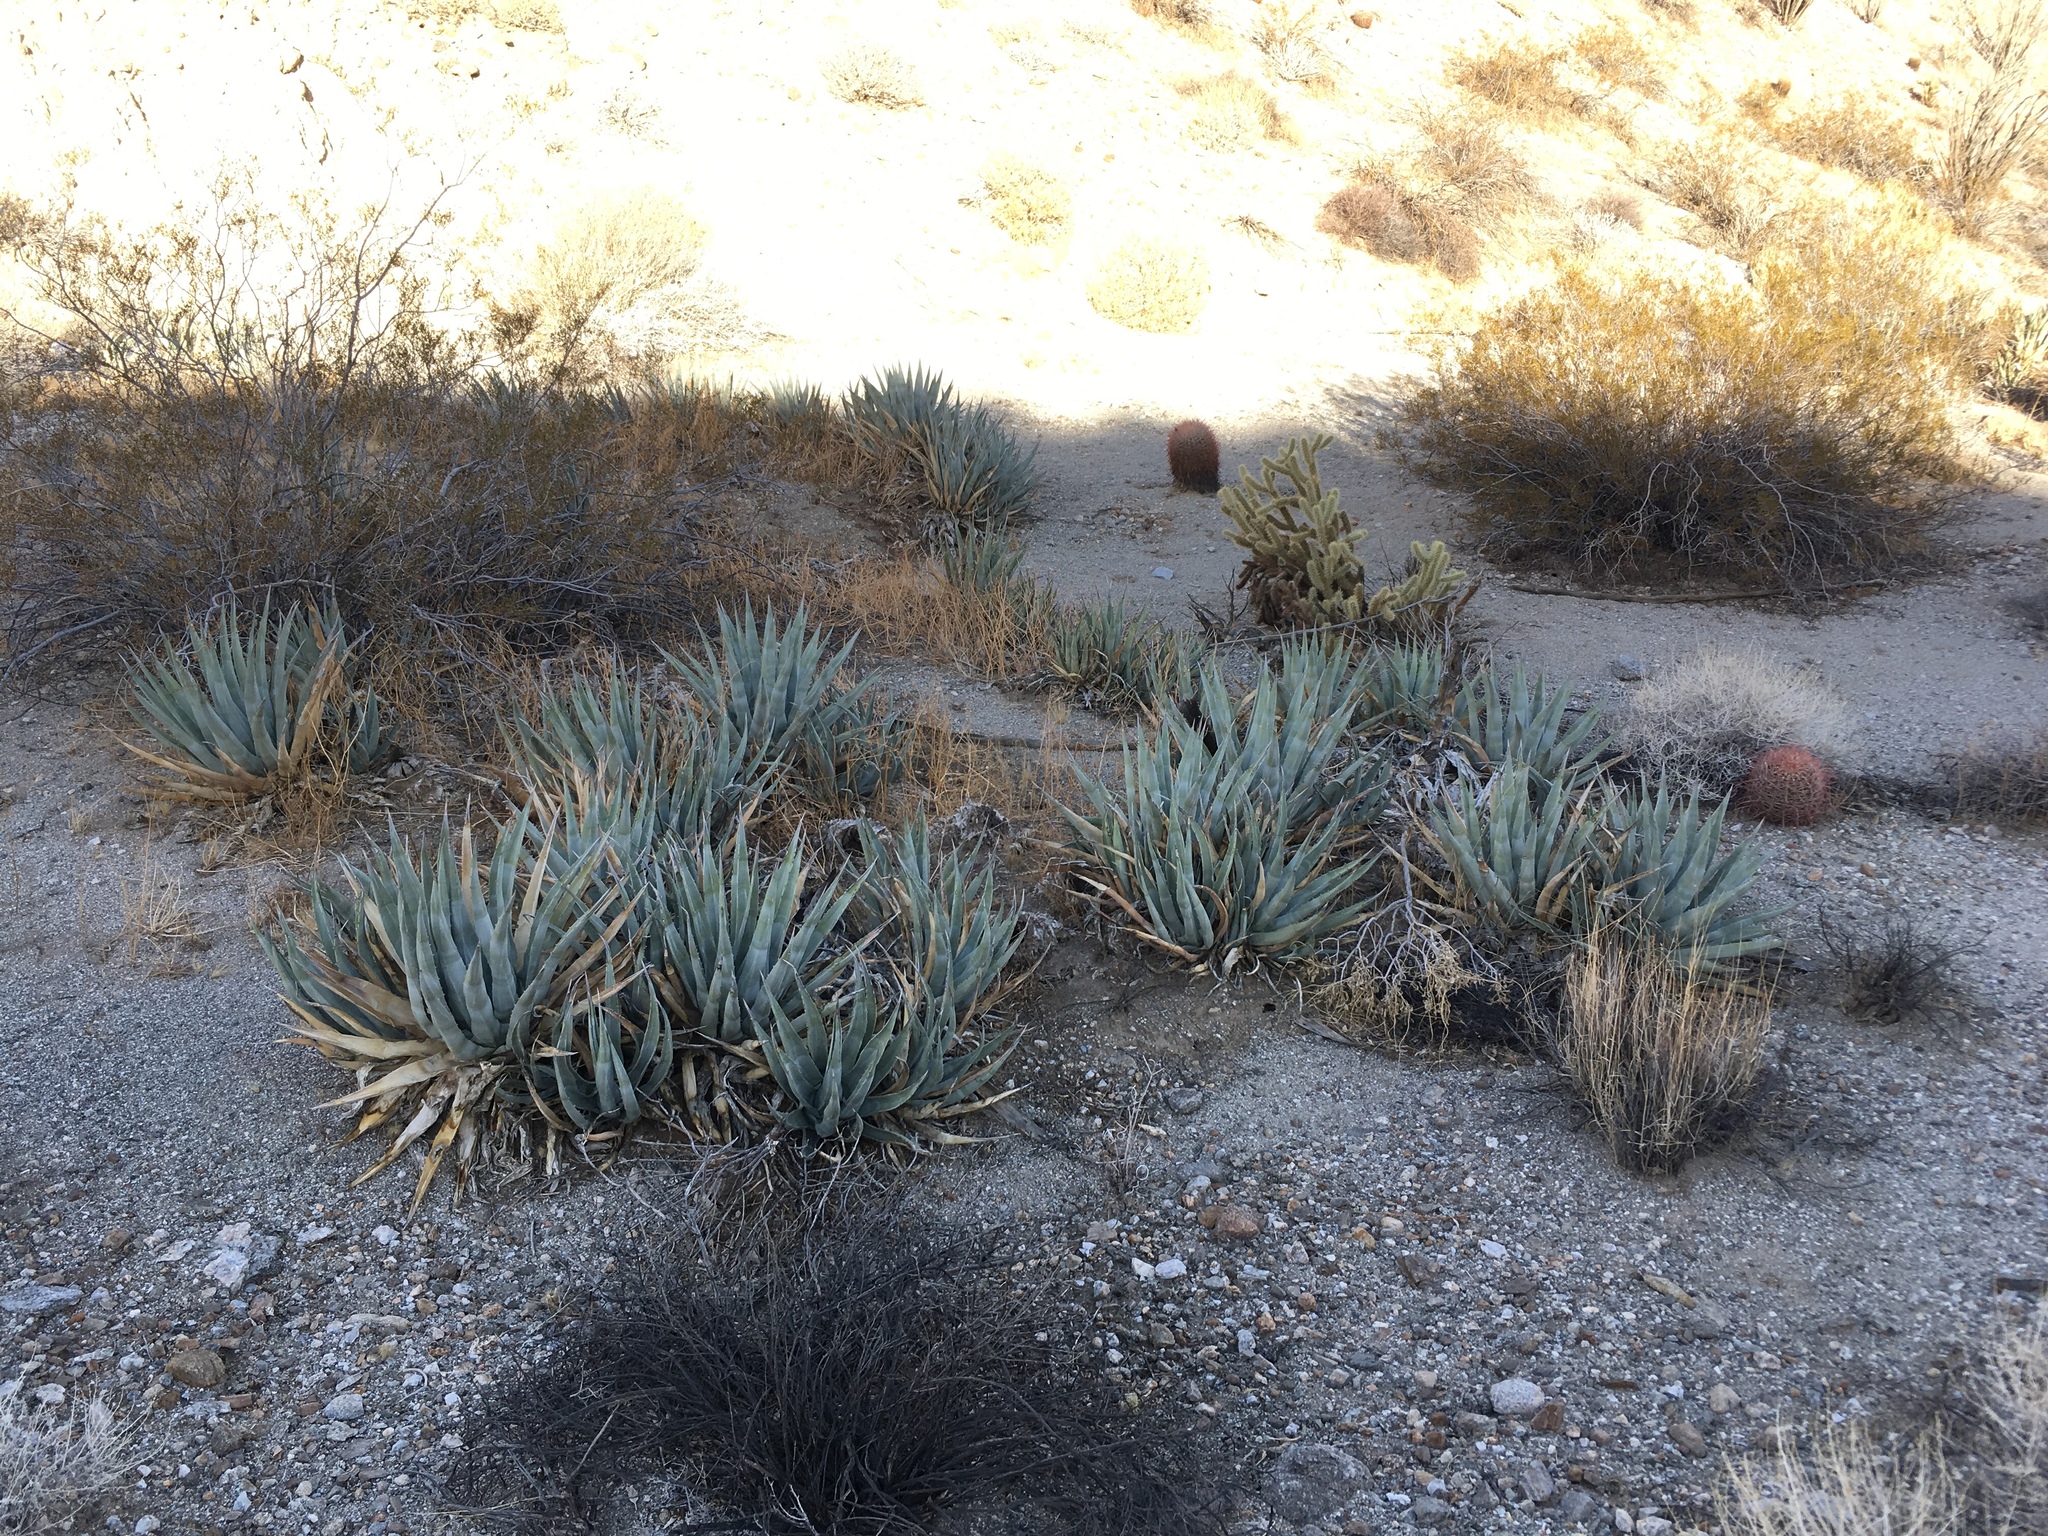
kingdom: Plantae
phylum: Tracheophyta
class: Liliopsida
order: Asparagales
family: Asparagaceae
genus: Agave
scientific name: Agave deserti
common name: Desert agave
